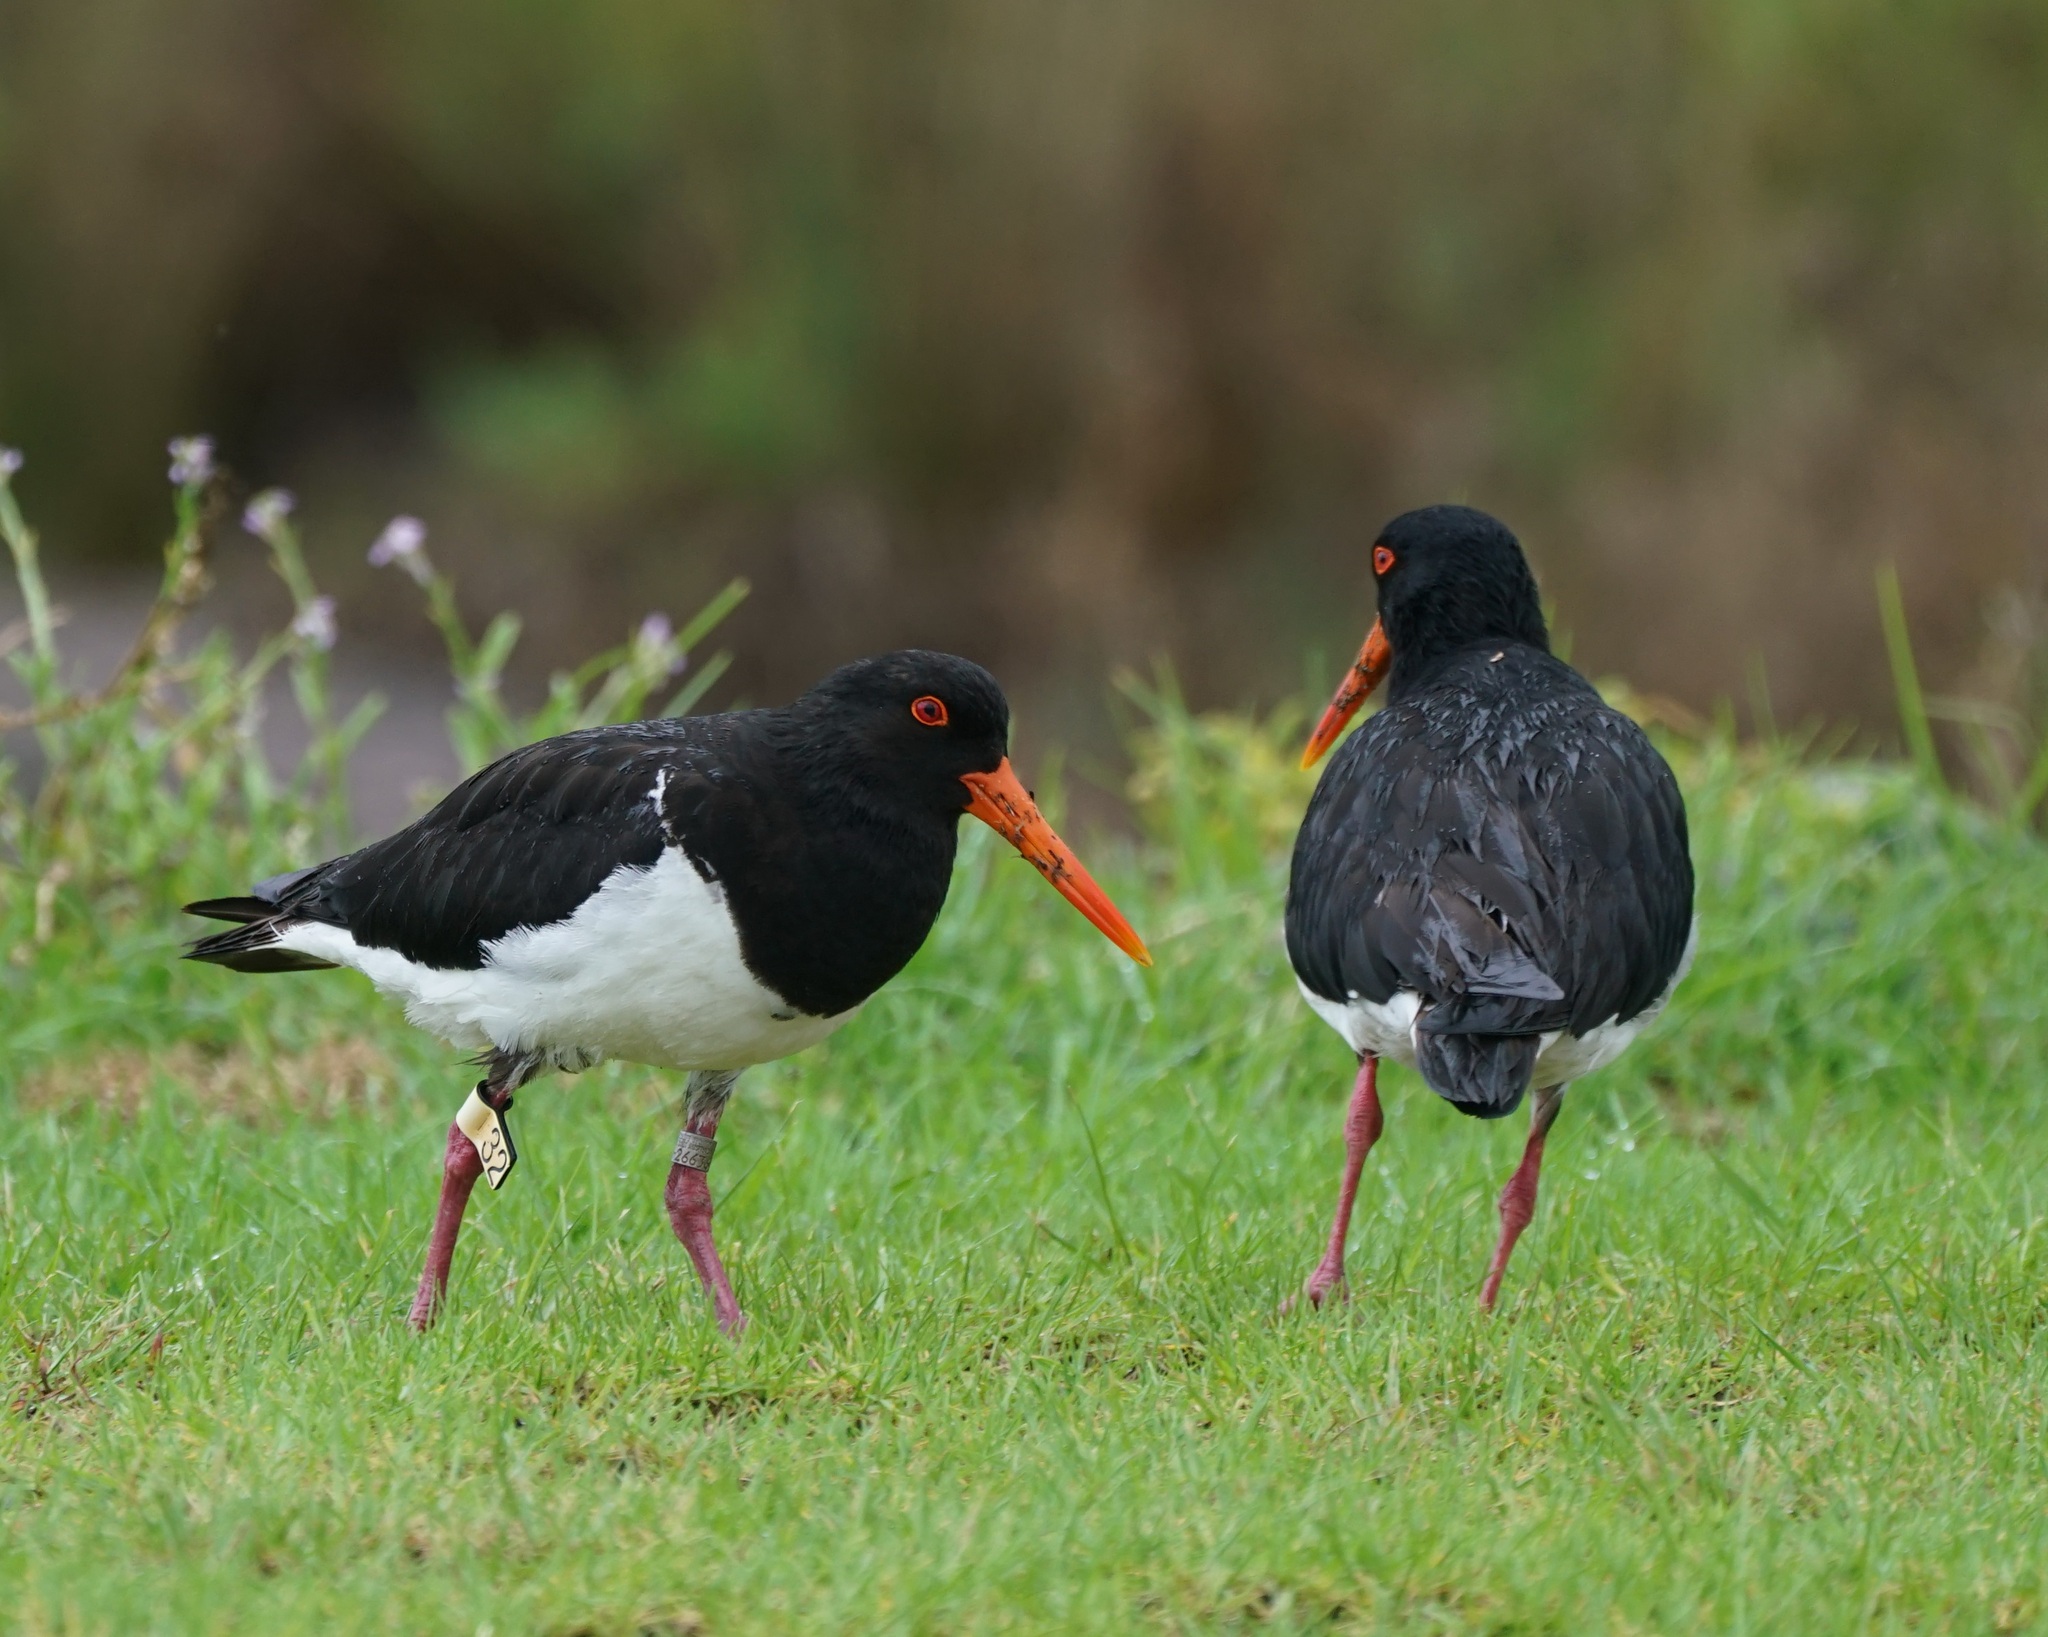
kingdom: Animalia
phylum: Chordata
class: Aves
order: Charadriiformes
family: Haematopodidae
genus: Haematopus
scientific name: Haematopus longirostris
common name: Pied oystercatcher
